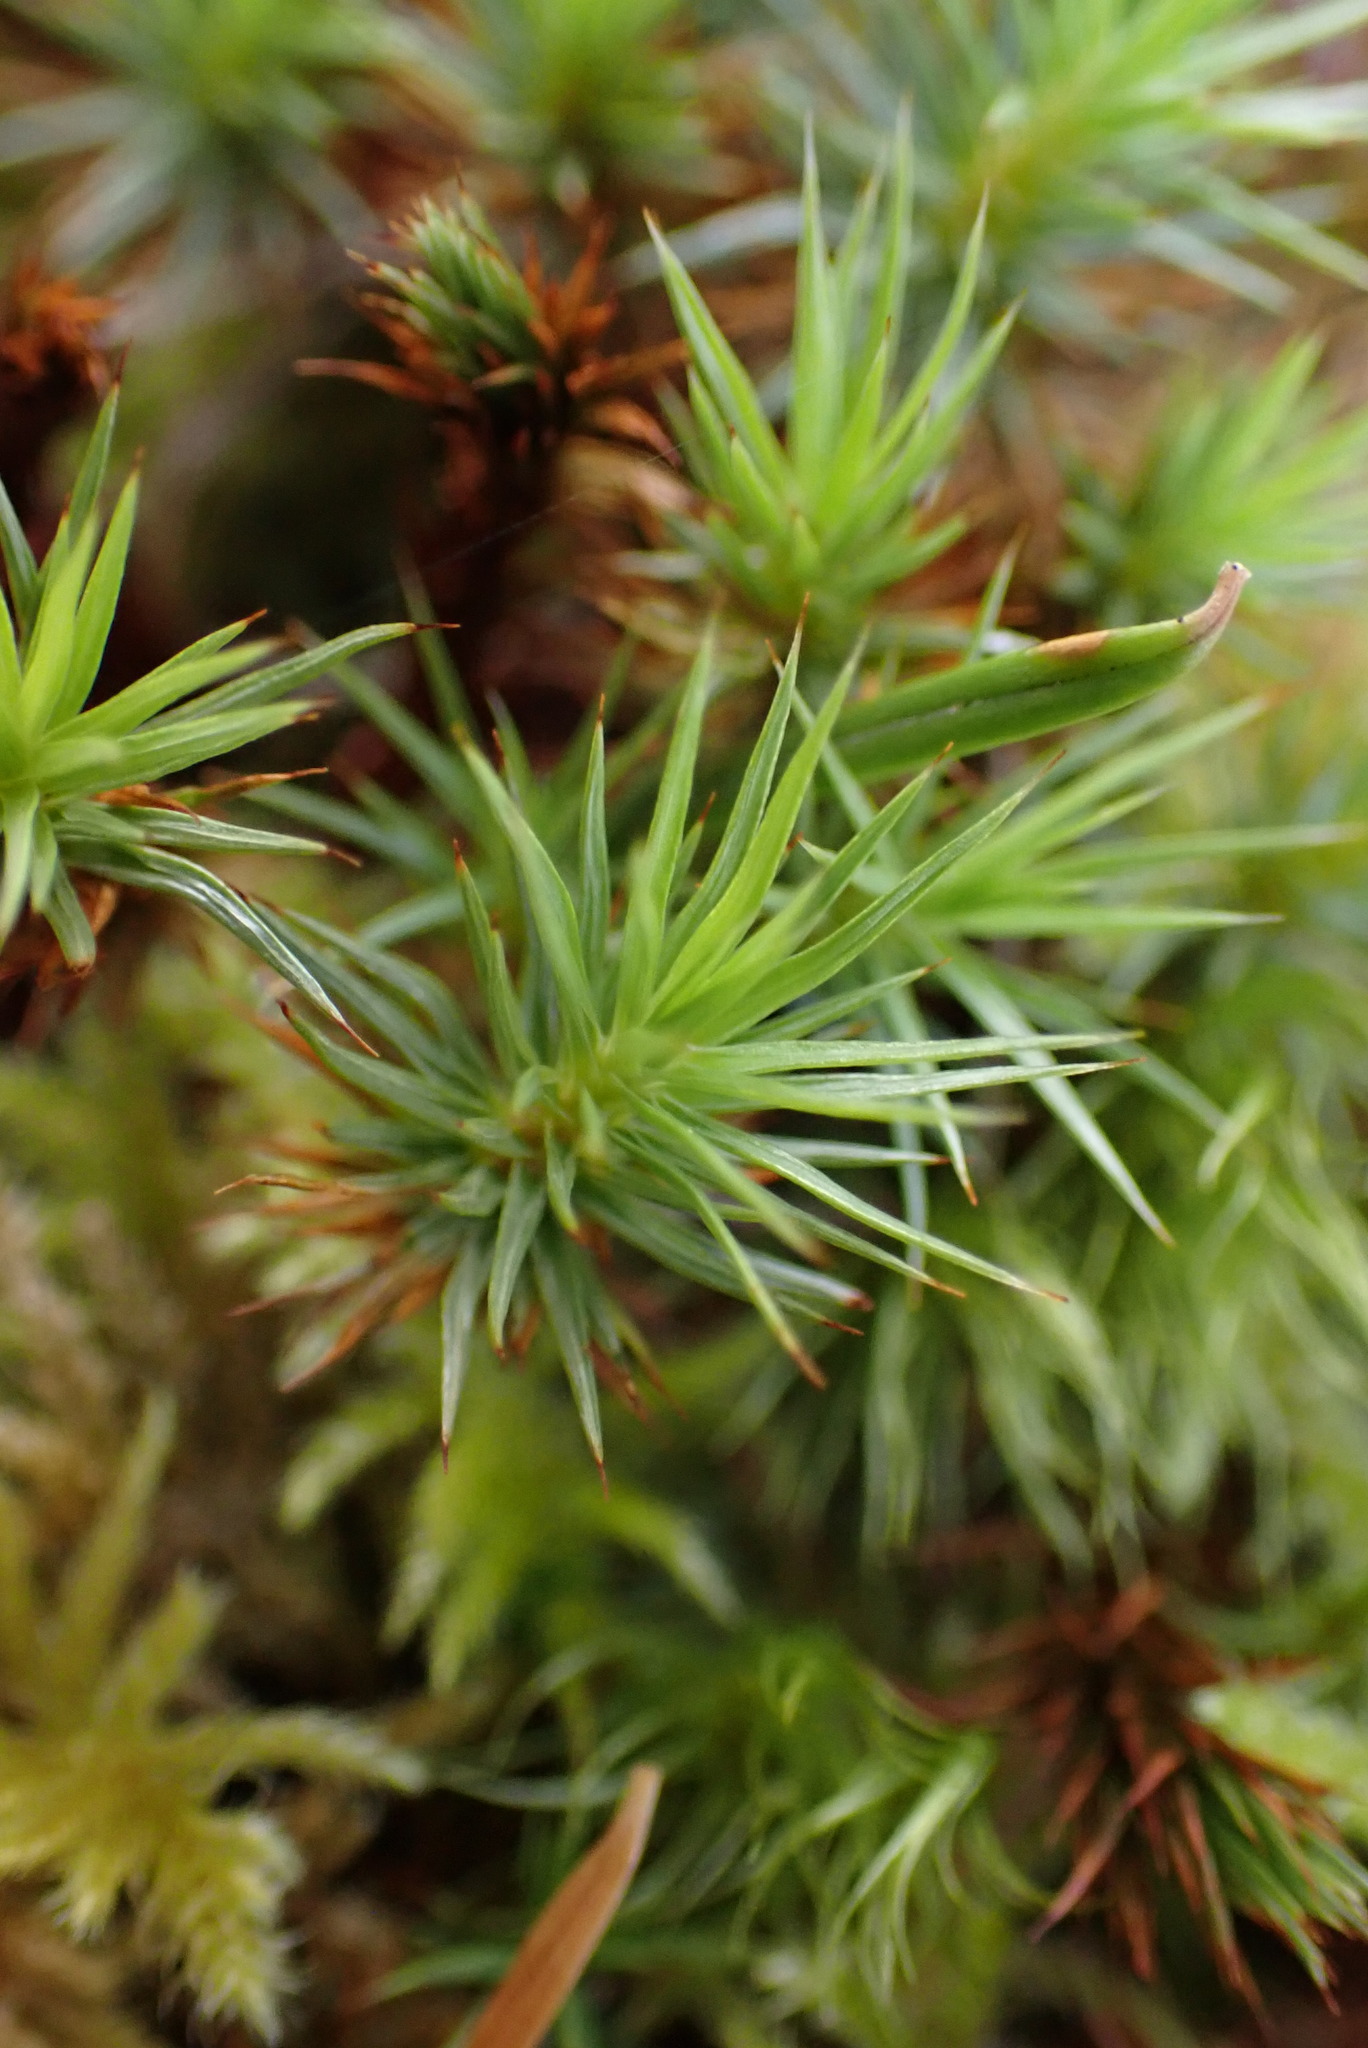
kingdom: Plantae
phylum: Bryophyta
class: Polytrichopsida
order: Polytrichales
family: Polytrichaceae
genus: Polytrichum
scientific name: Polytrichum juniperinum
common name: Juniper haircap moss
